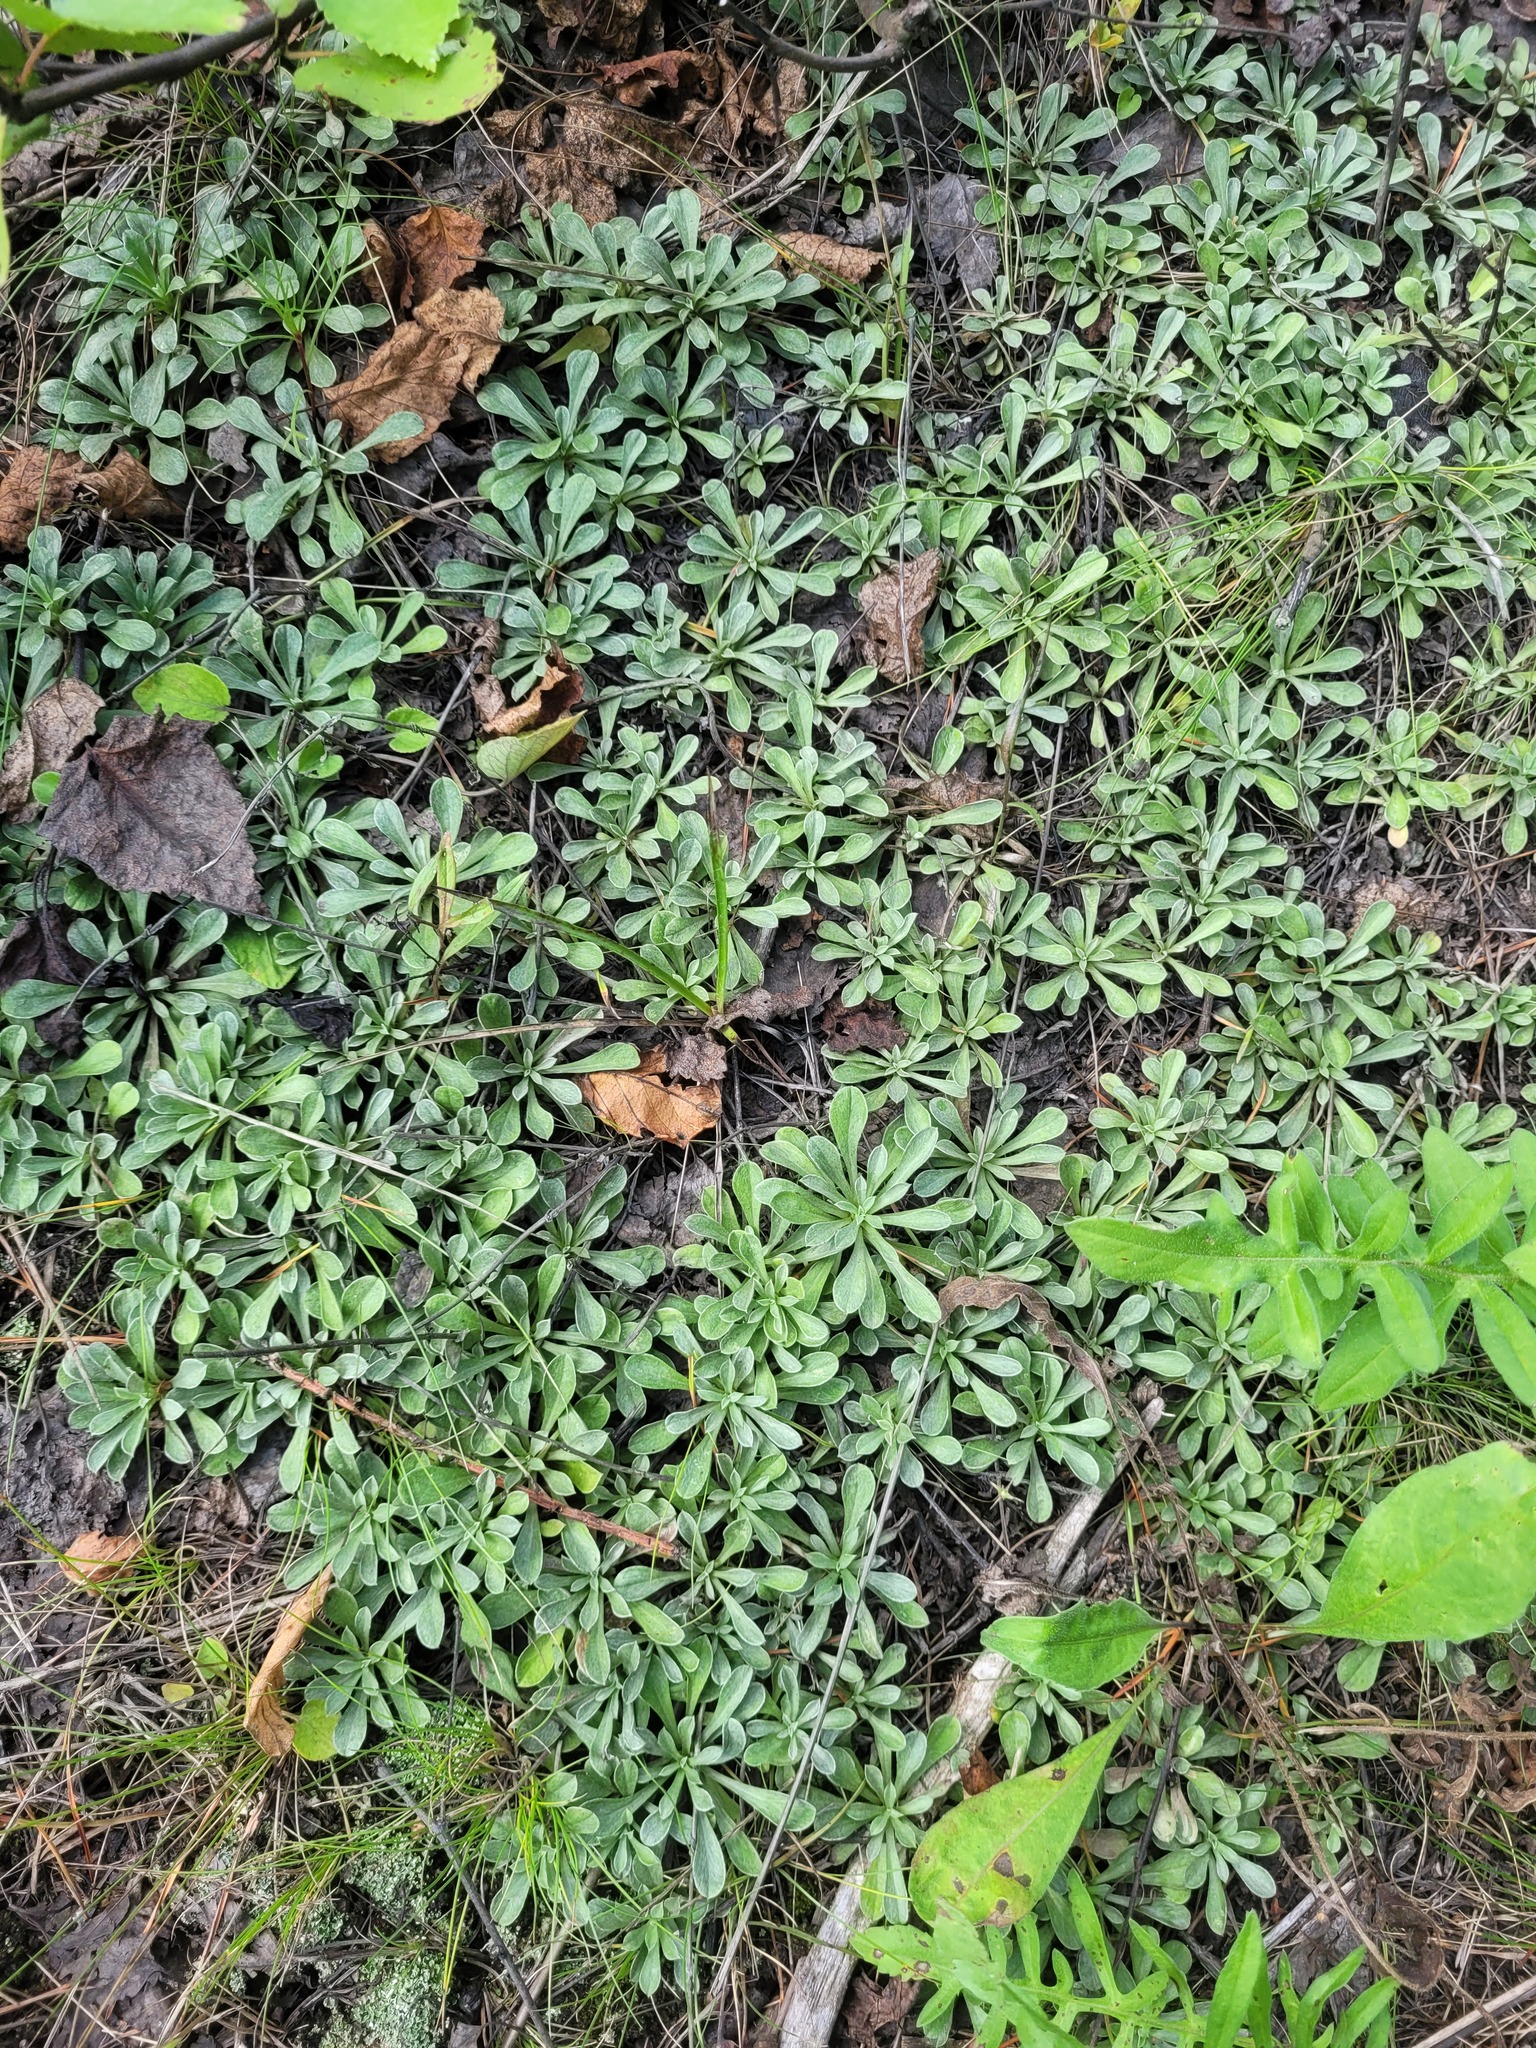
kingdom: Plantae
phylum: Tracheophyta
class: Magnoliopsida
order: Asterales
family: Asteraceae
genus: Antennaria
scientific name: Antennaria dioica
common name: Mountain everlasting
